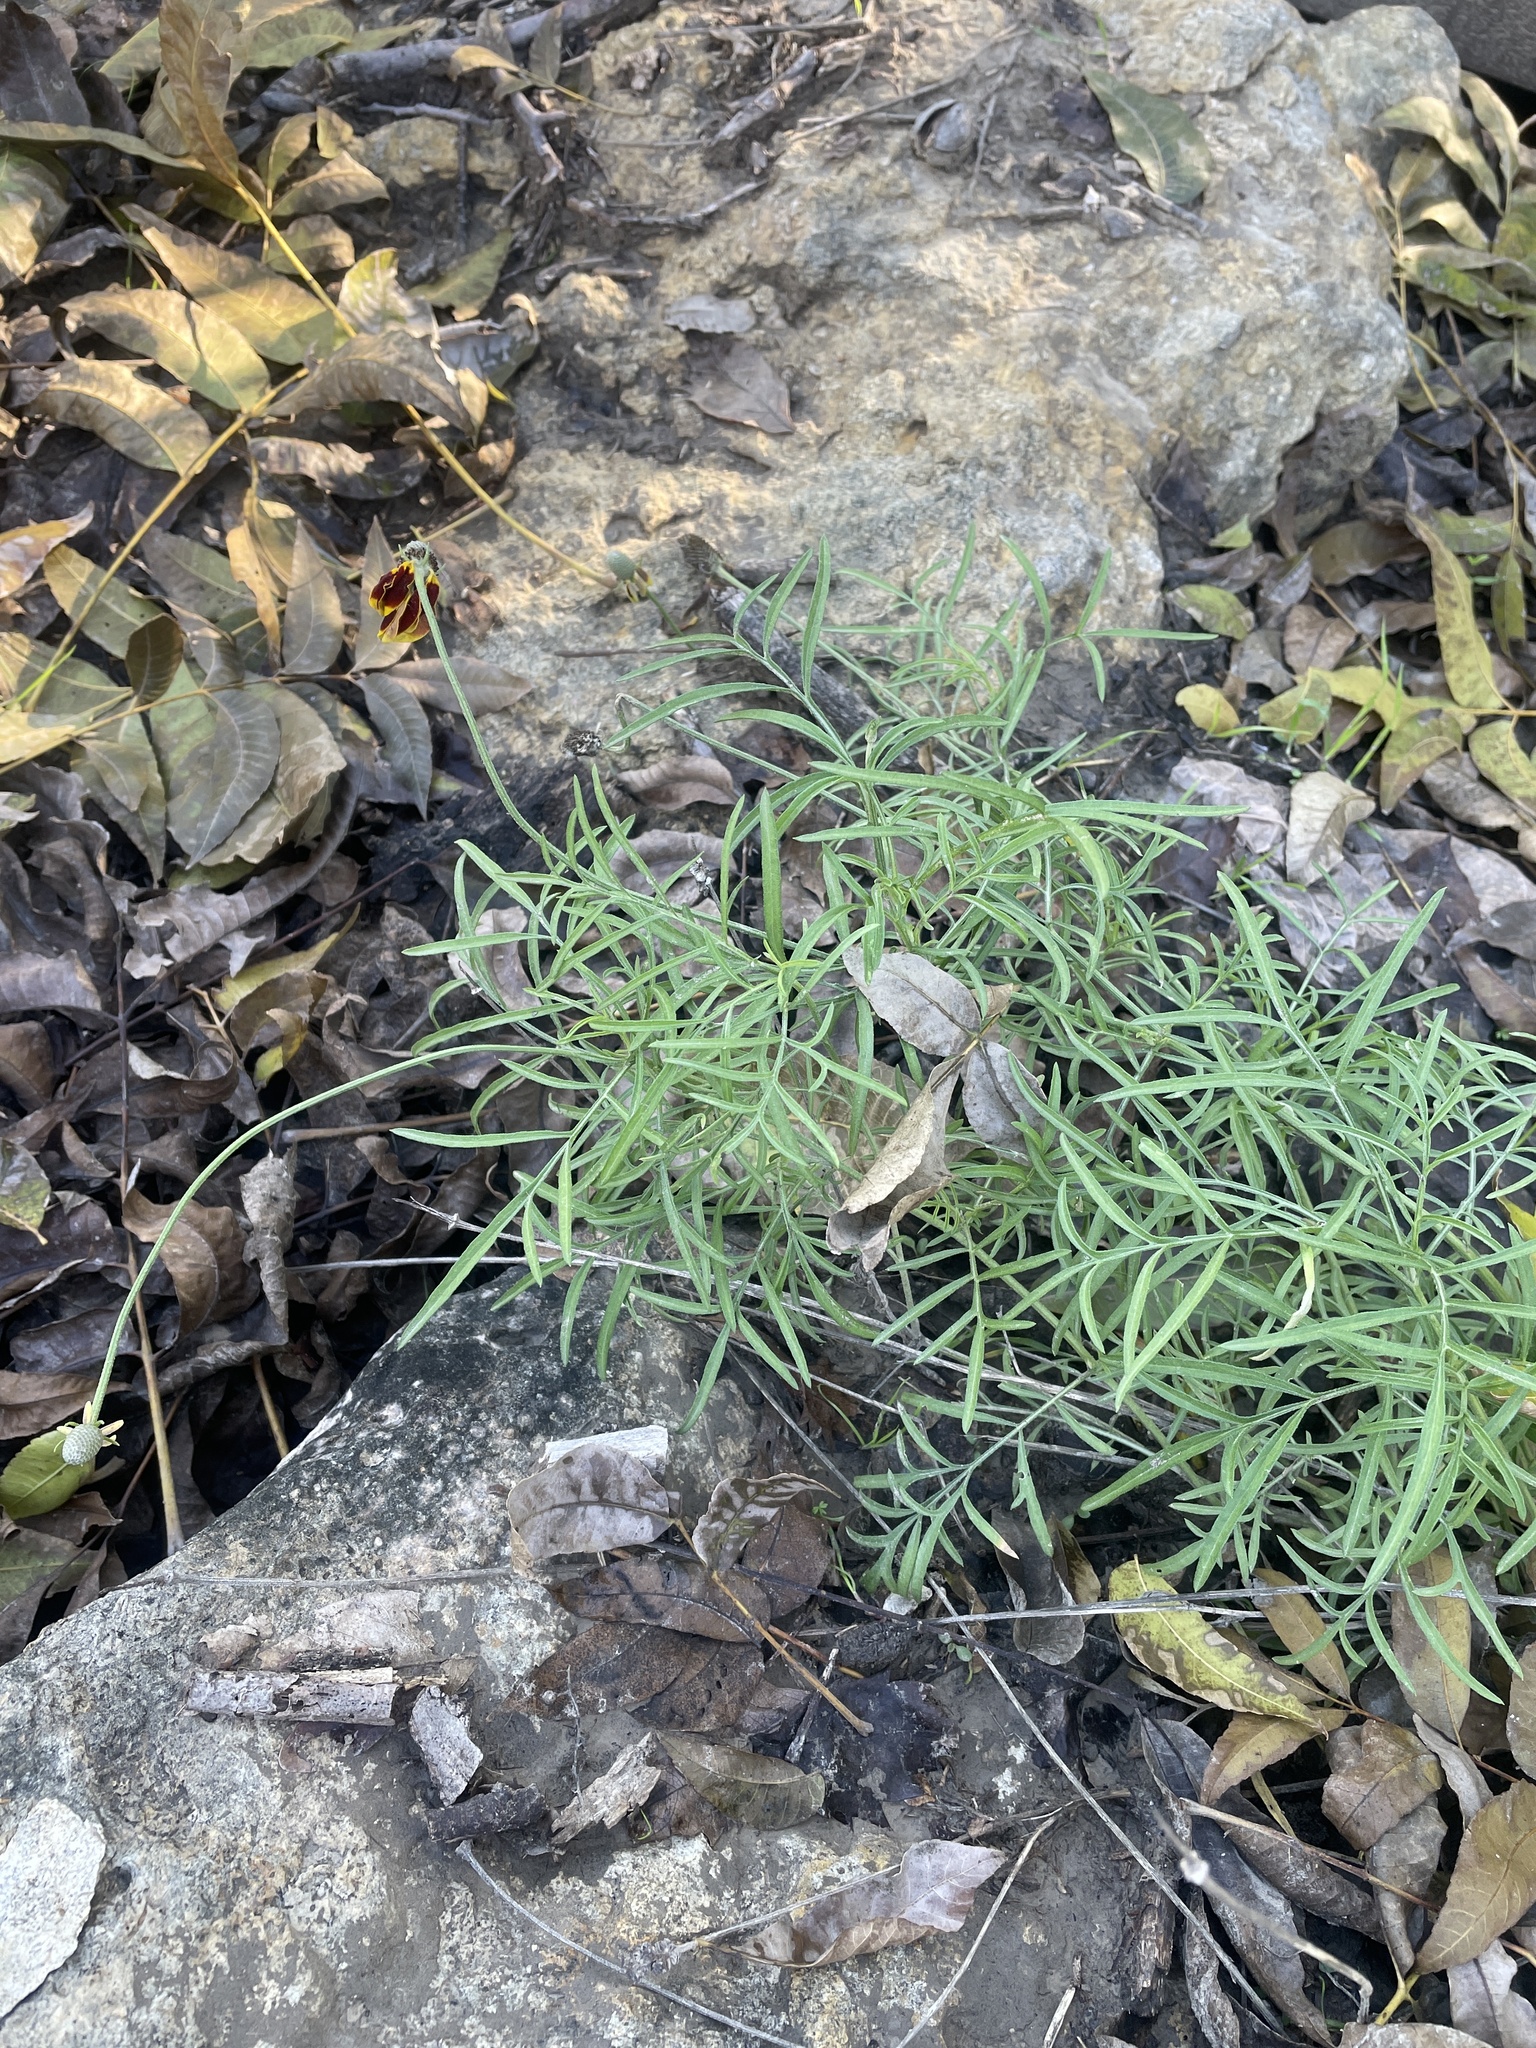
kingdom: Plantae
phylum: Tracheophyta
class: Magnoliopsida
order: Asterales
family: Asteraceae
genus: Ratibida
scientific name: Ratibida columnifera
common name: Prairie coneflower
